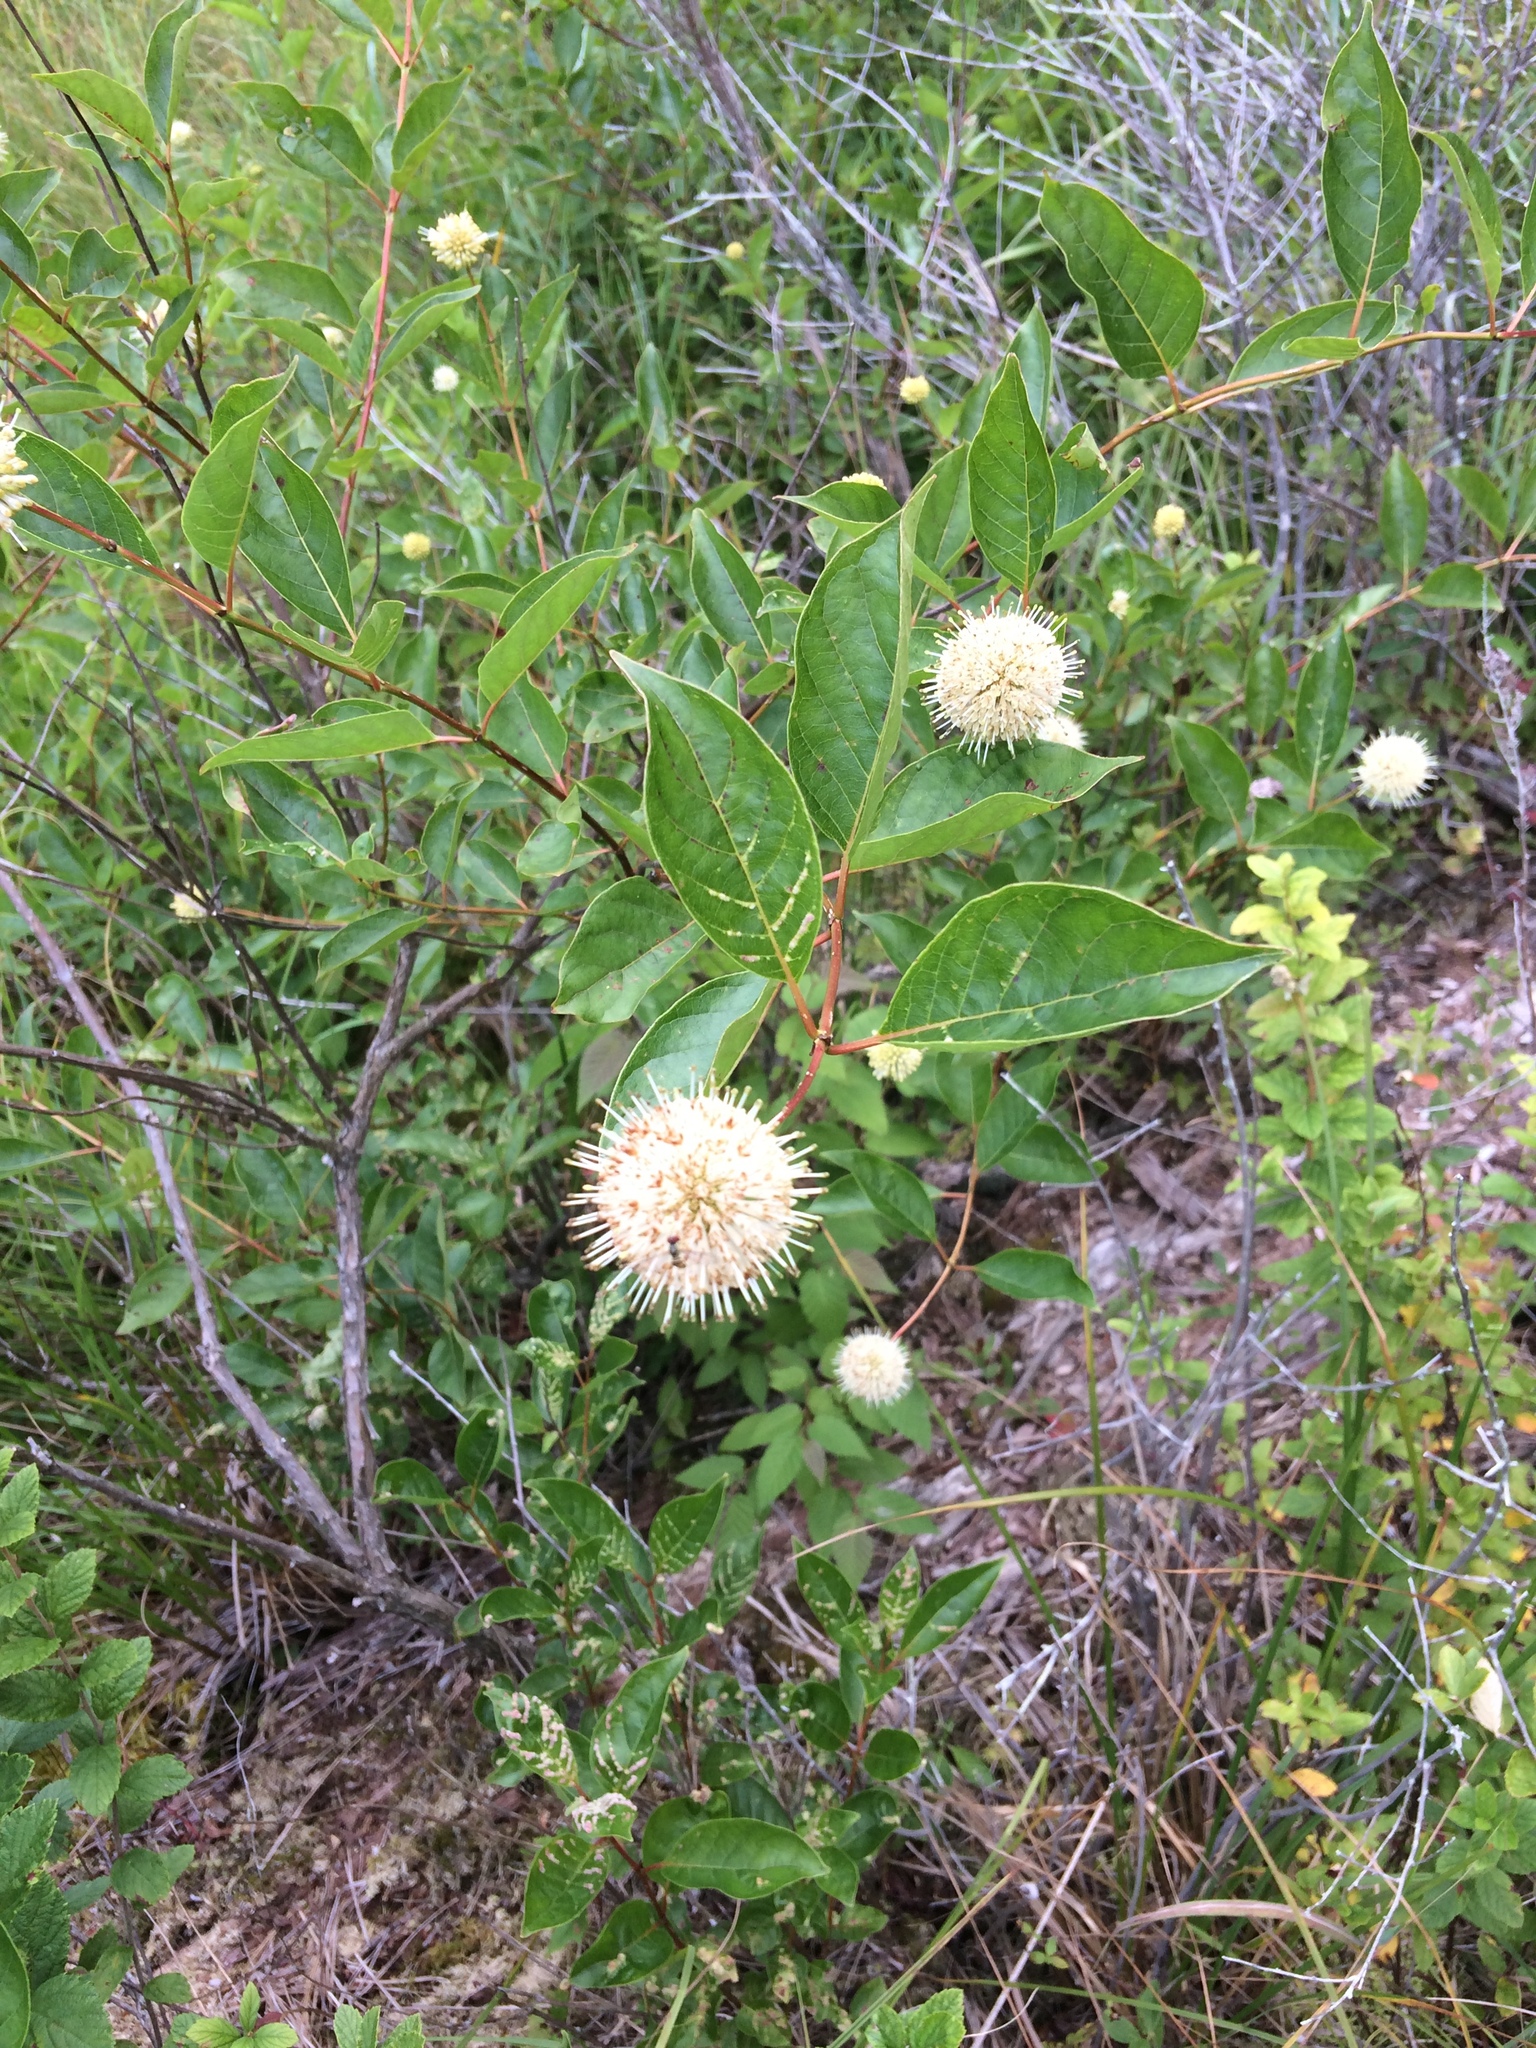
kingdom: Plantae
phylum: Tracheophyta
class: Magnoliopsida
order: Gentianales
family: Rubiaceae
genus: Cephalanthus
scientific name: Cephalanthus occidentalis
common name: Button-willow
